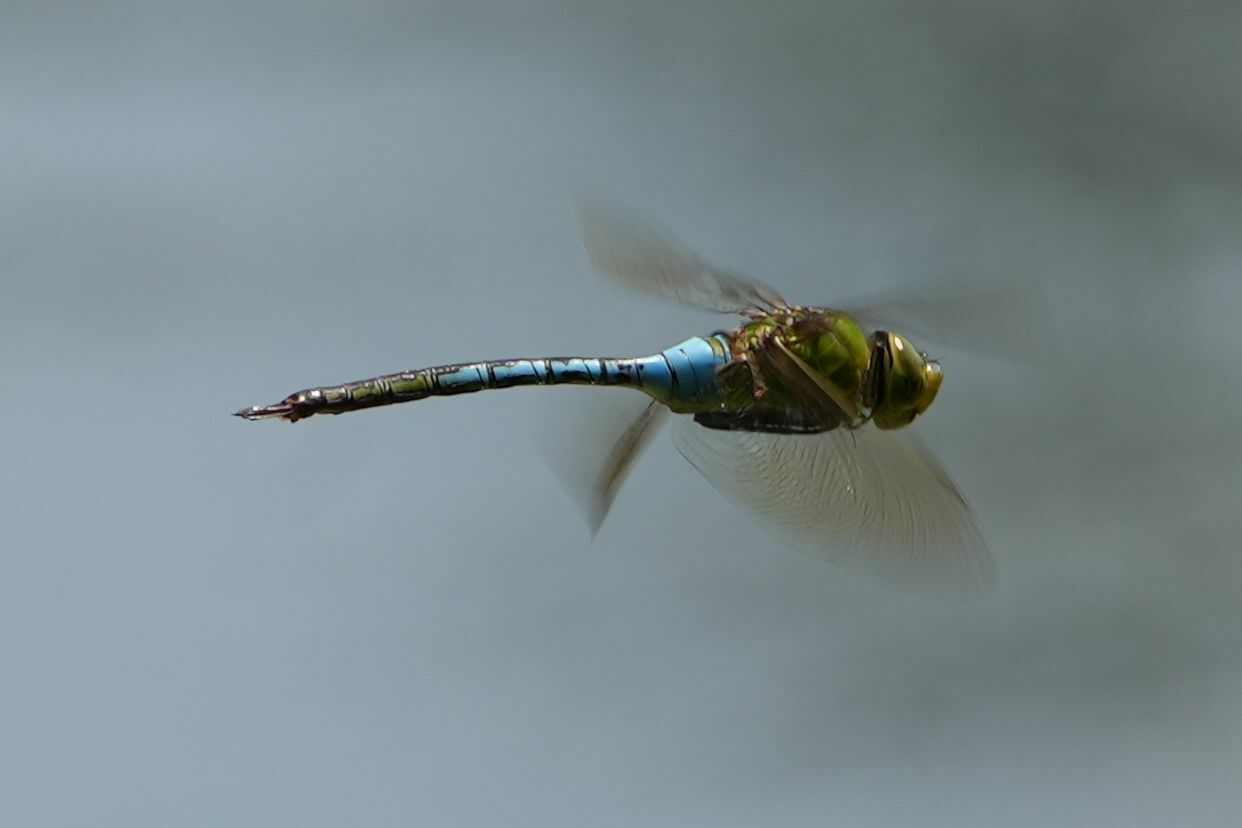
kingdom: Animalia
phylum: Arthropoda
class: Insecta
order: Odonata
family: Aeshnidae
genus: Anax
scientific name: Anax junius
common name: Common green darner
